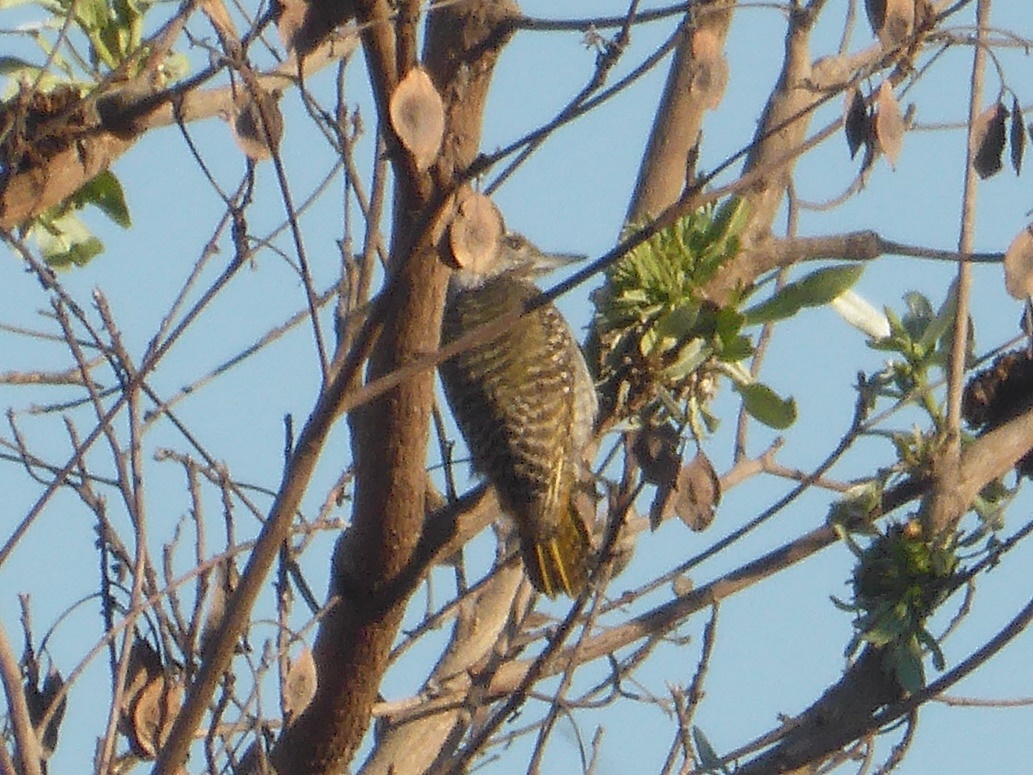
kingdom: Animalia
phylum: Chordata
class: Aves
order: Piciformes
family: Picidae
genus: Dendropicos
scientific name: Dendropicos fuscescens
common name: Cardinal woodpecker
